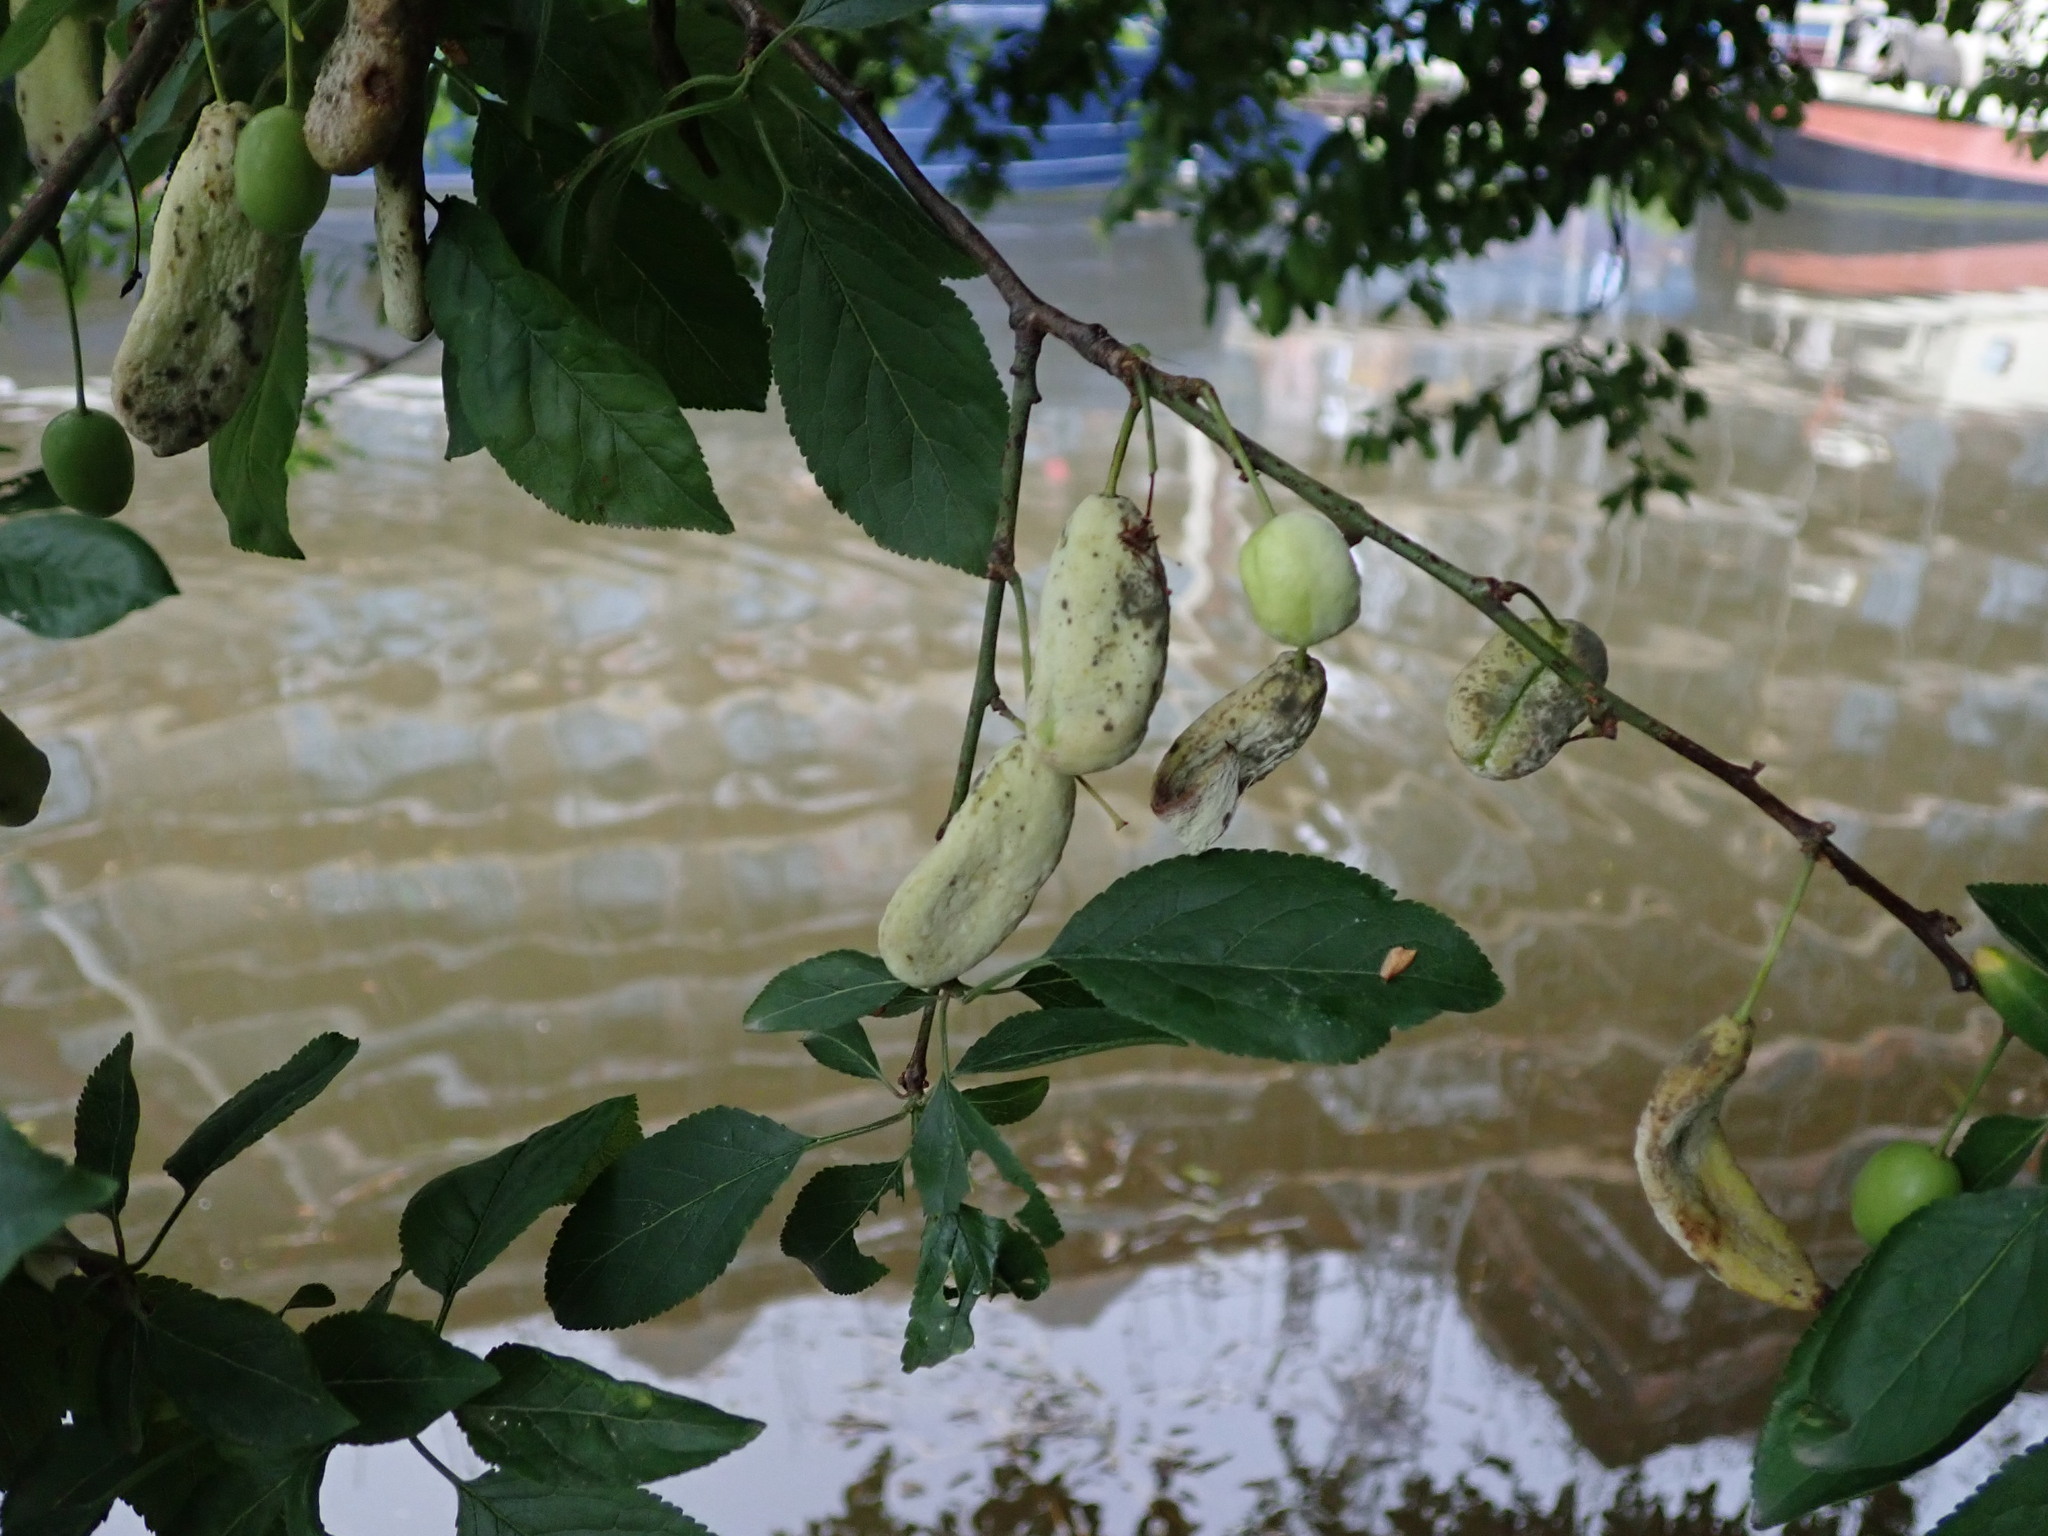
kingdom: Fungi
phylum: Ascomycota
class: Taphrinomycetes
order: Taphrinales
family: Taphrinaceae
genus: Taphrina
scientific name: Taphrina pruni
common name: Pocket plum
